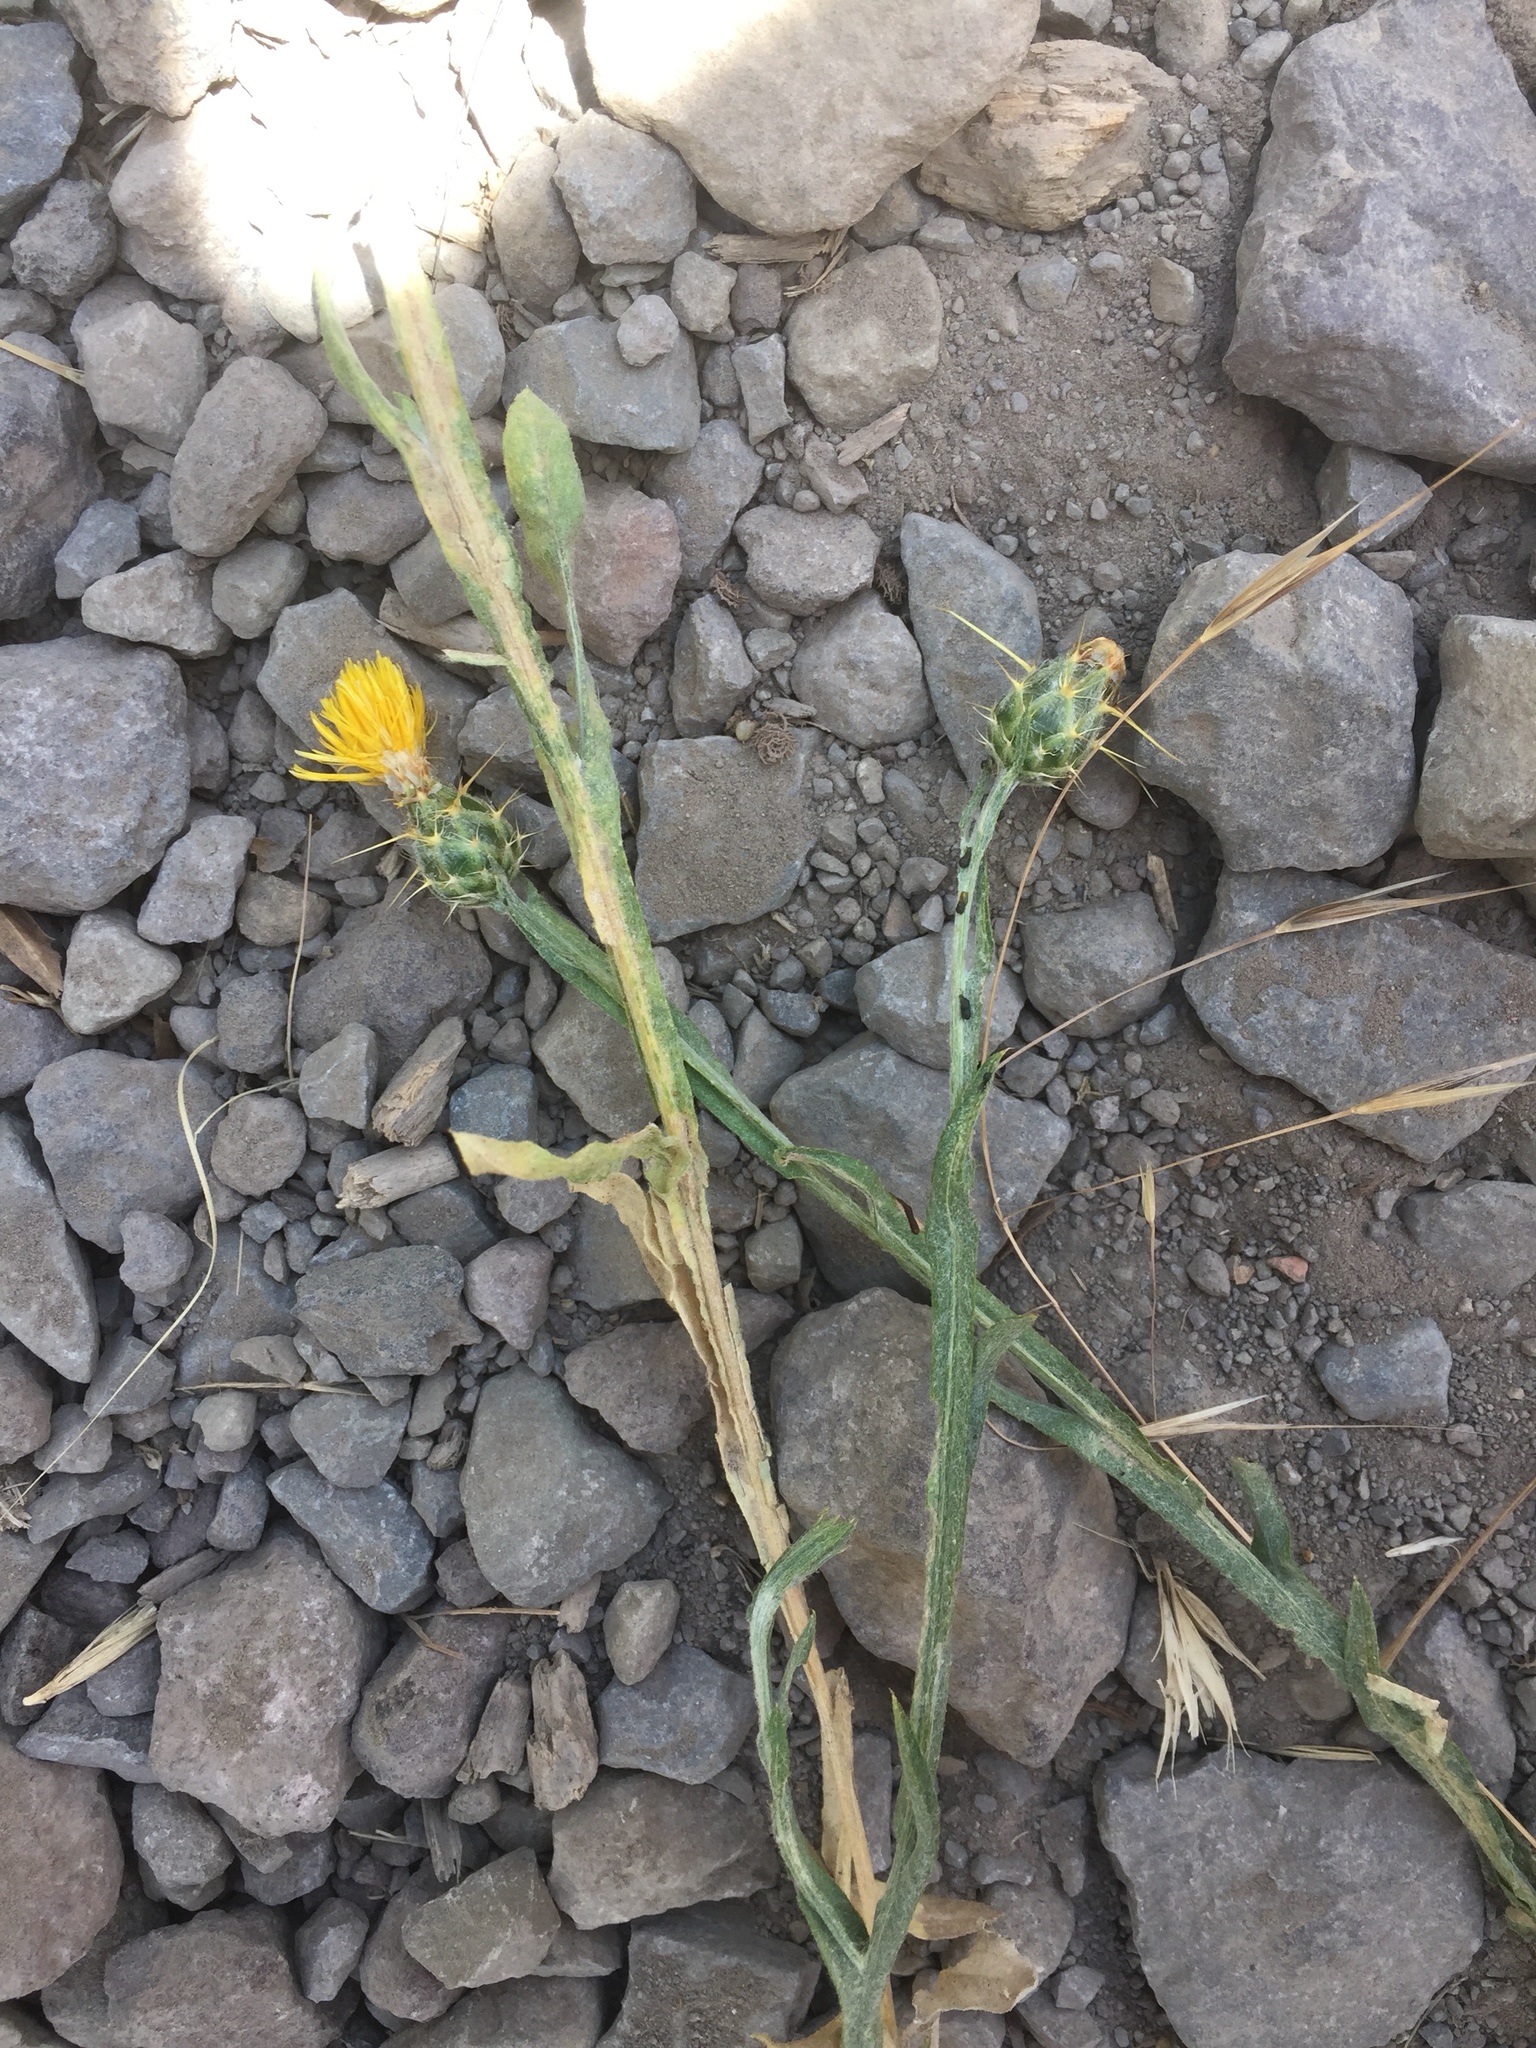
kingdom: Plantae
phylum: Tracheophyta
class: Magnoliopsida
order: Asterales
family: Asteraceae
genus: Centaurea
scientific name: Centaurea solstitialis
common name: Yellow star-thistle
